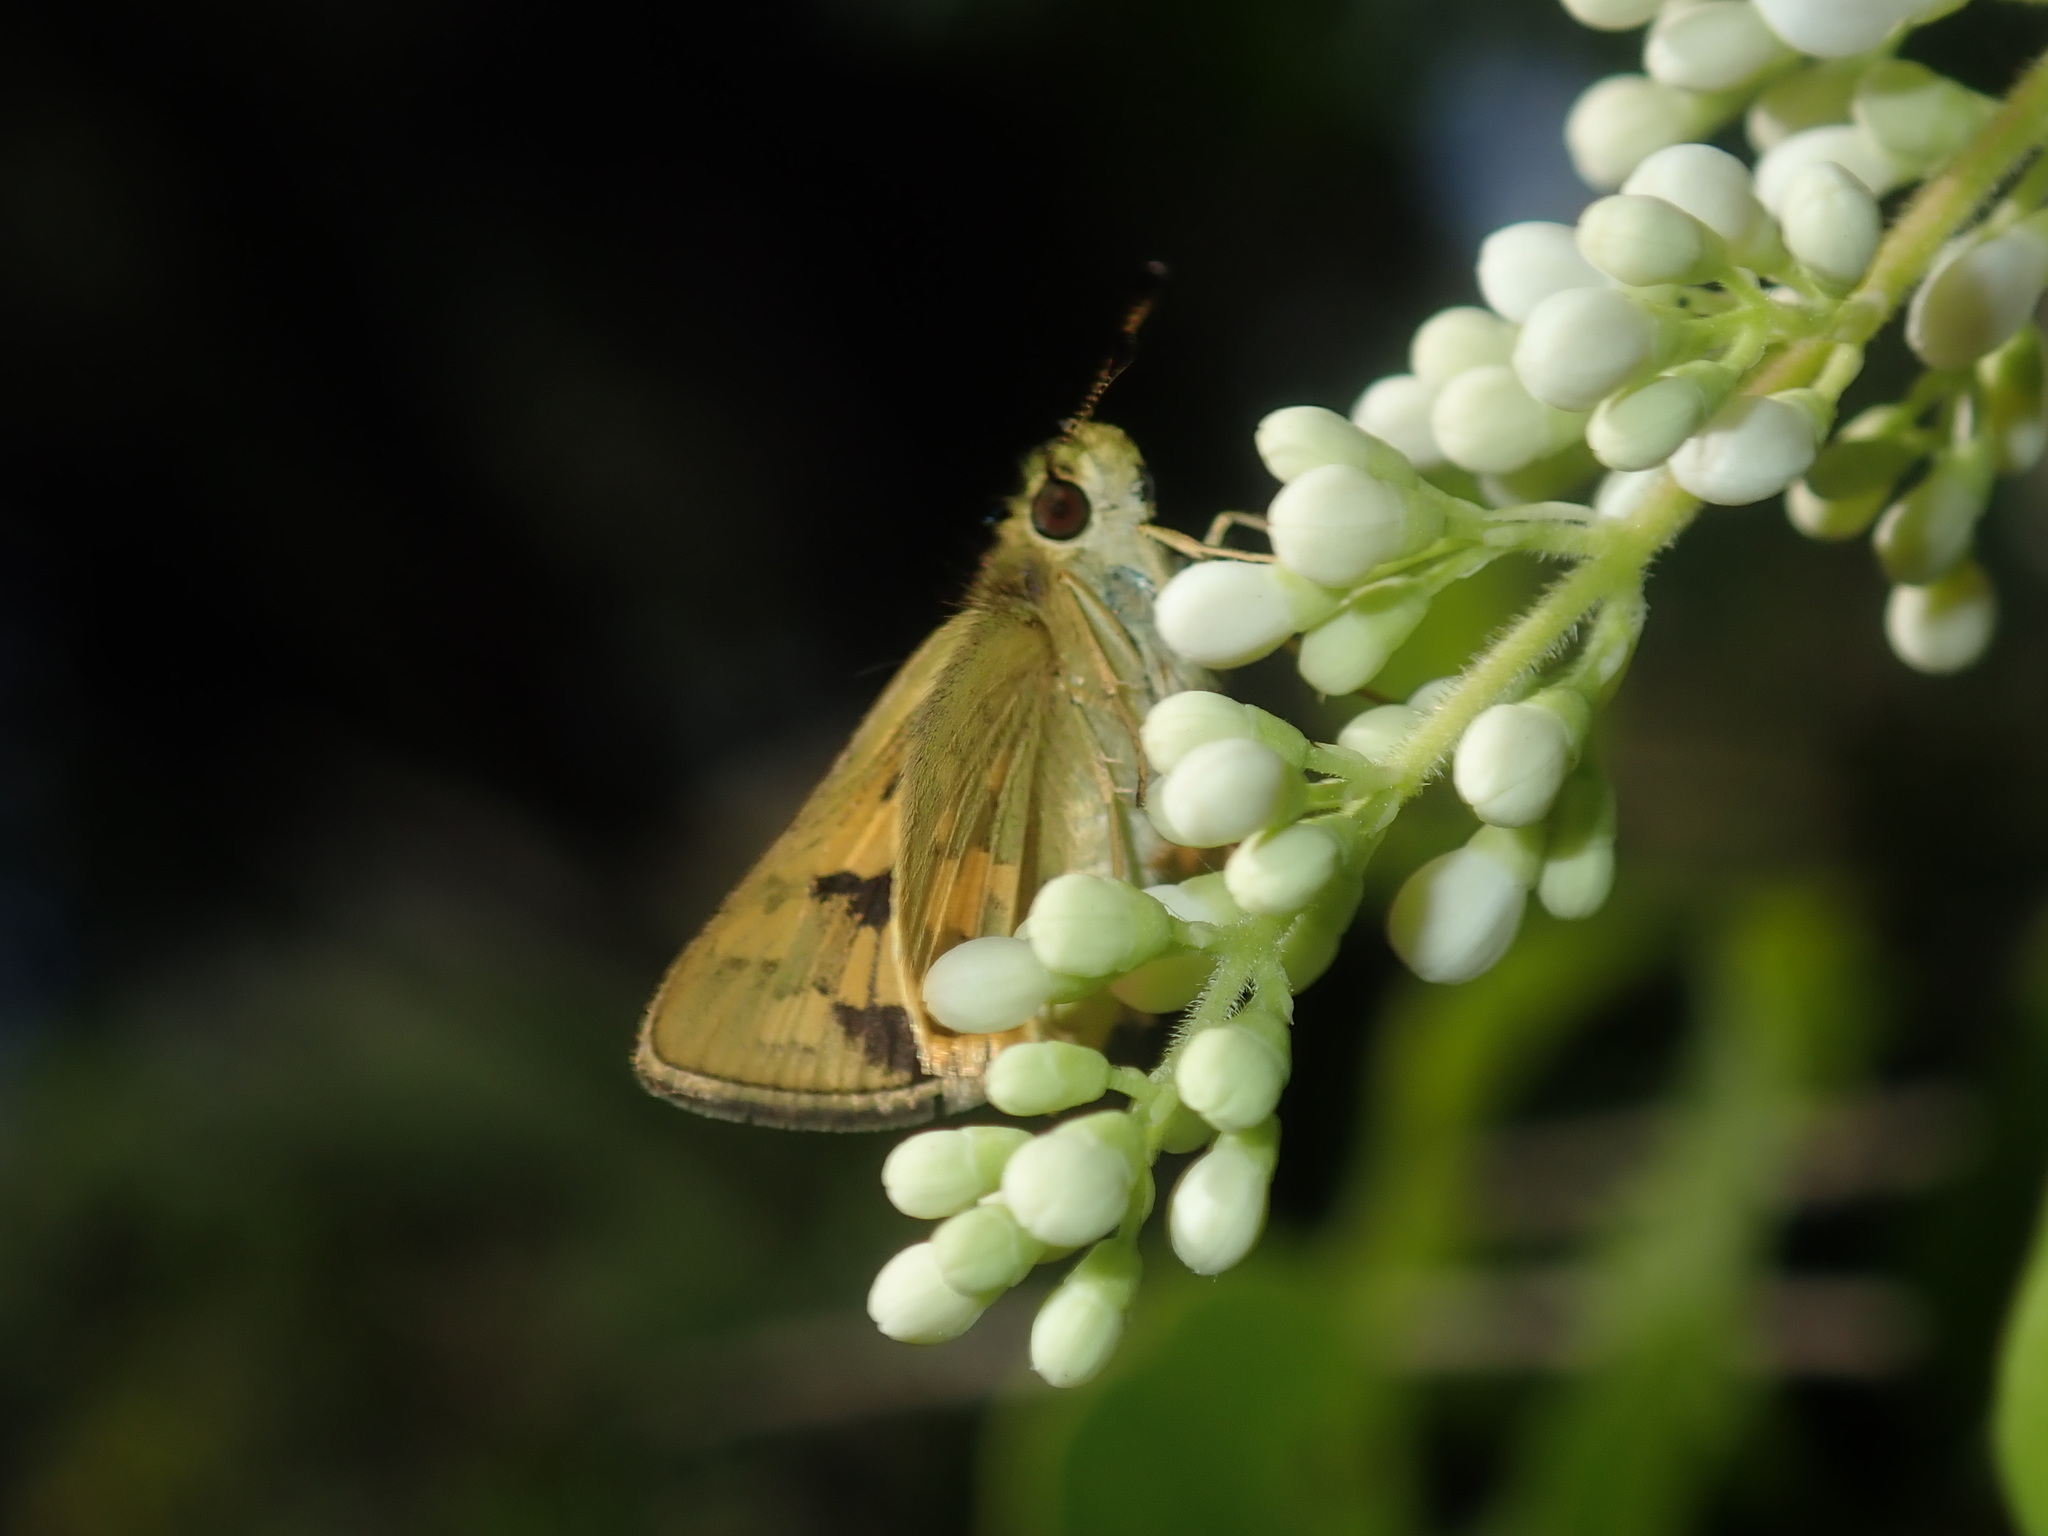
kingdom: Animalia
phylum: Arthropoda
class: Insecta
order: Lepidoptera
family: Hesperiidae
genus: Ocybadistes
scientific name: Ocybadistes walkeri
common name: Yellow-banded dart
